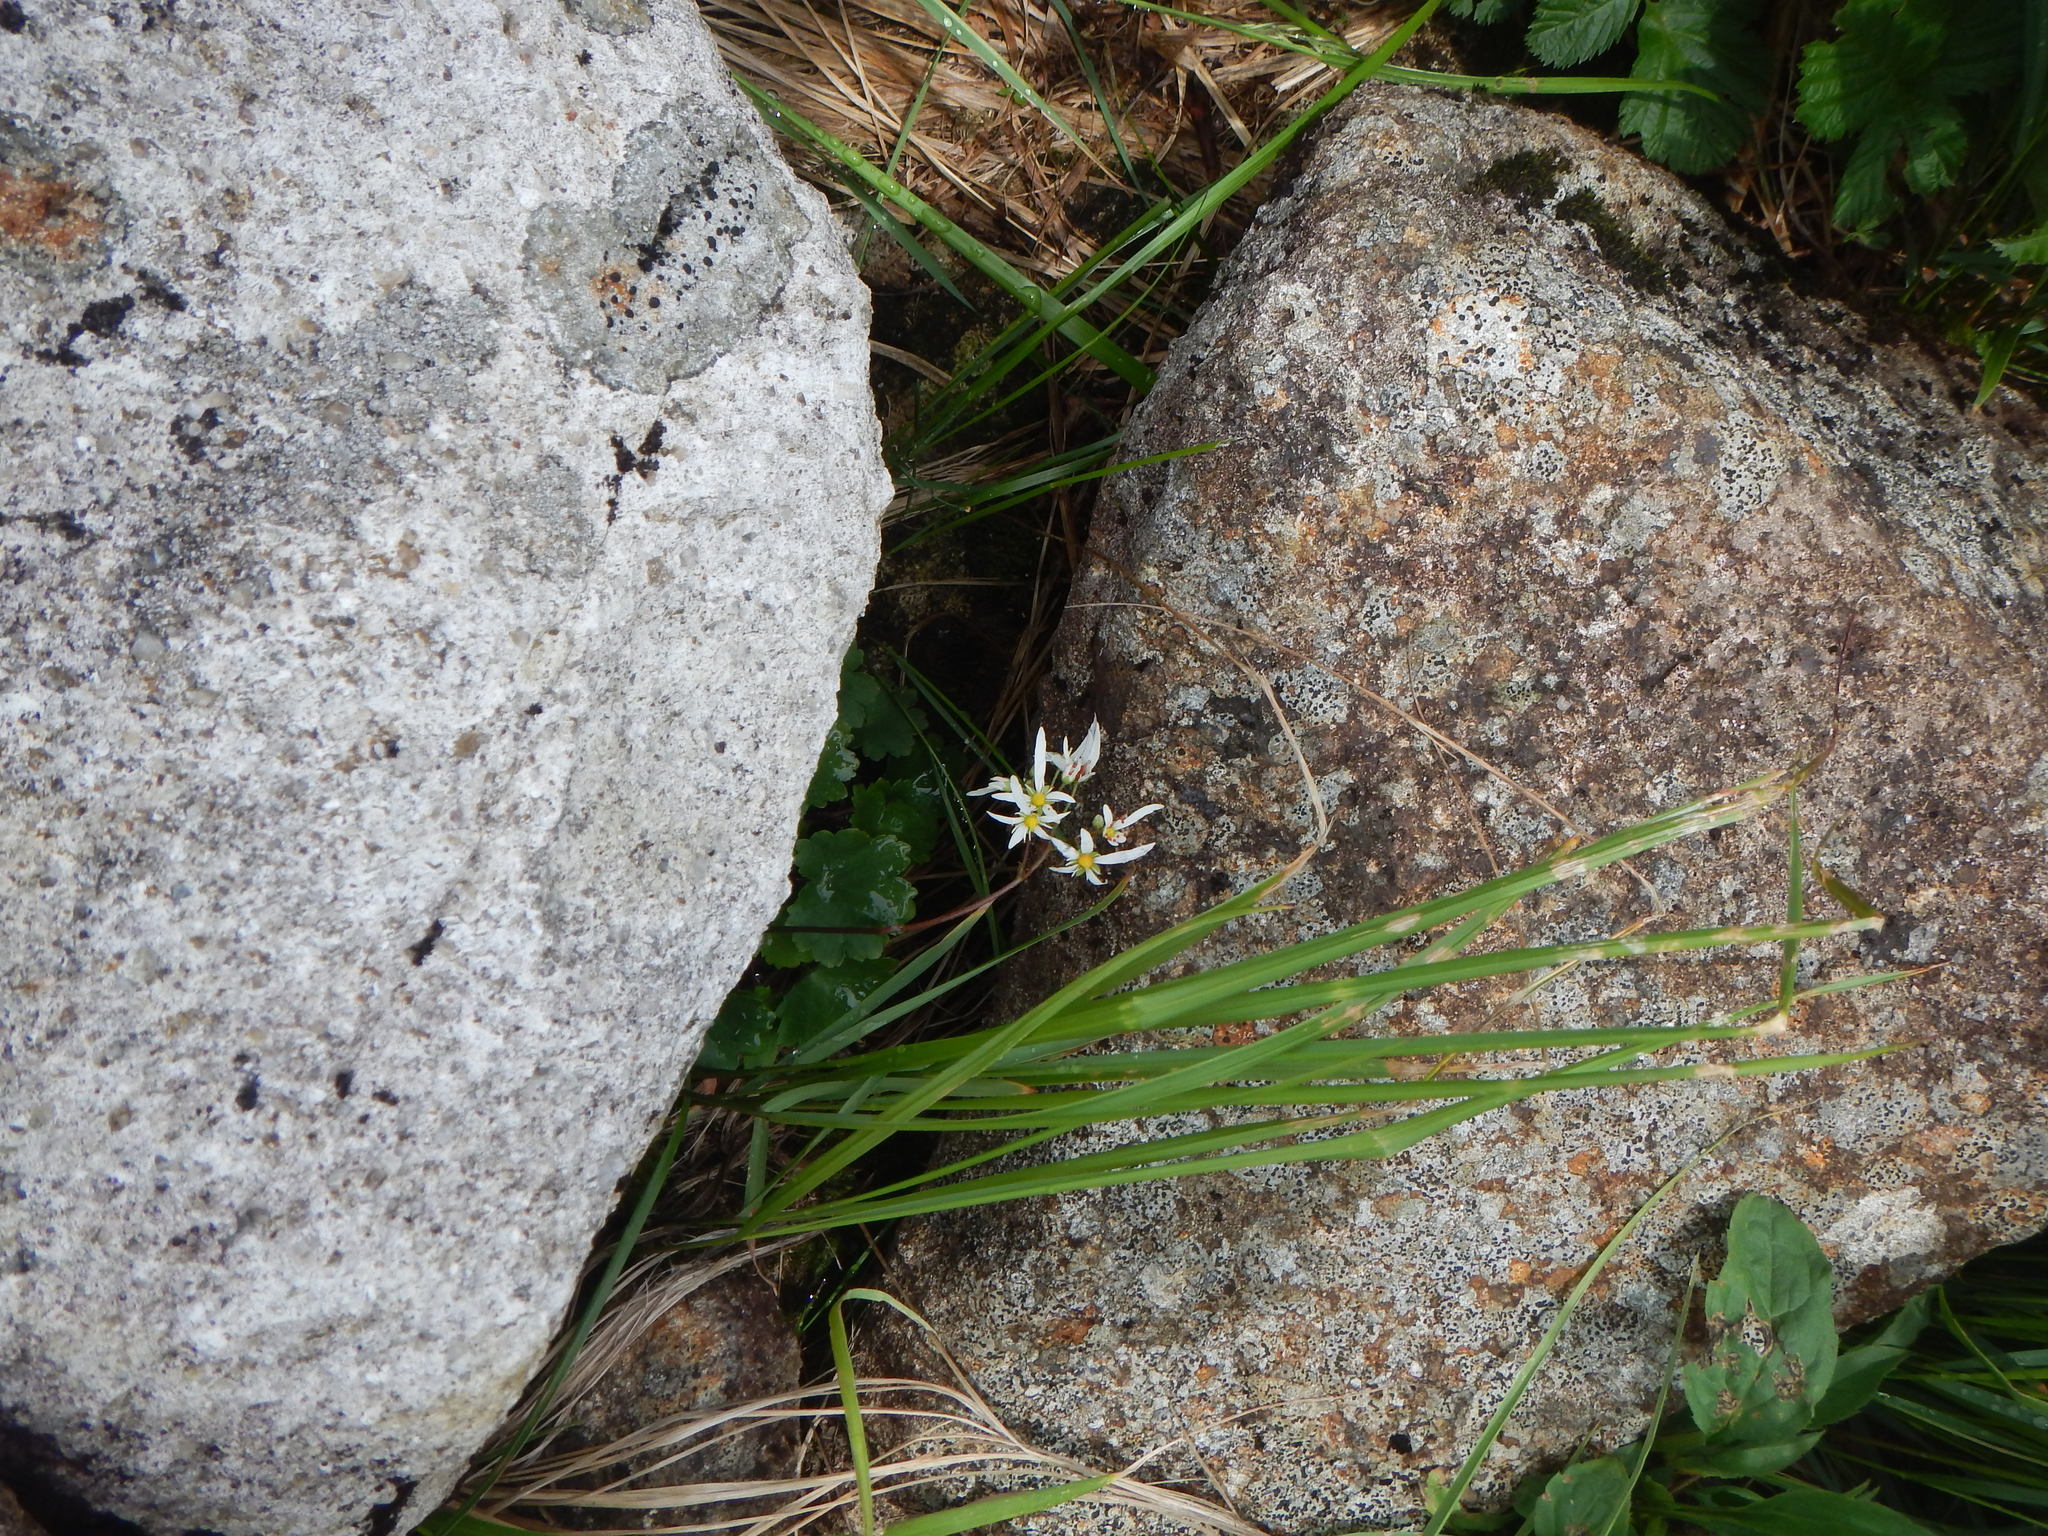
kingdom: Plantae
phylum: Tracheophyta
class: Magnoliopsida
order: Saxifragales
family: Saxifragaceae
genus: Saxifraga
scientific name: Saxifraga fortunei
